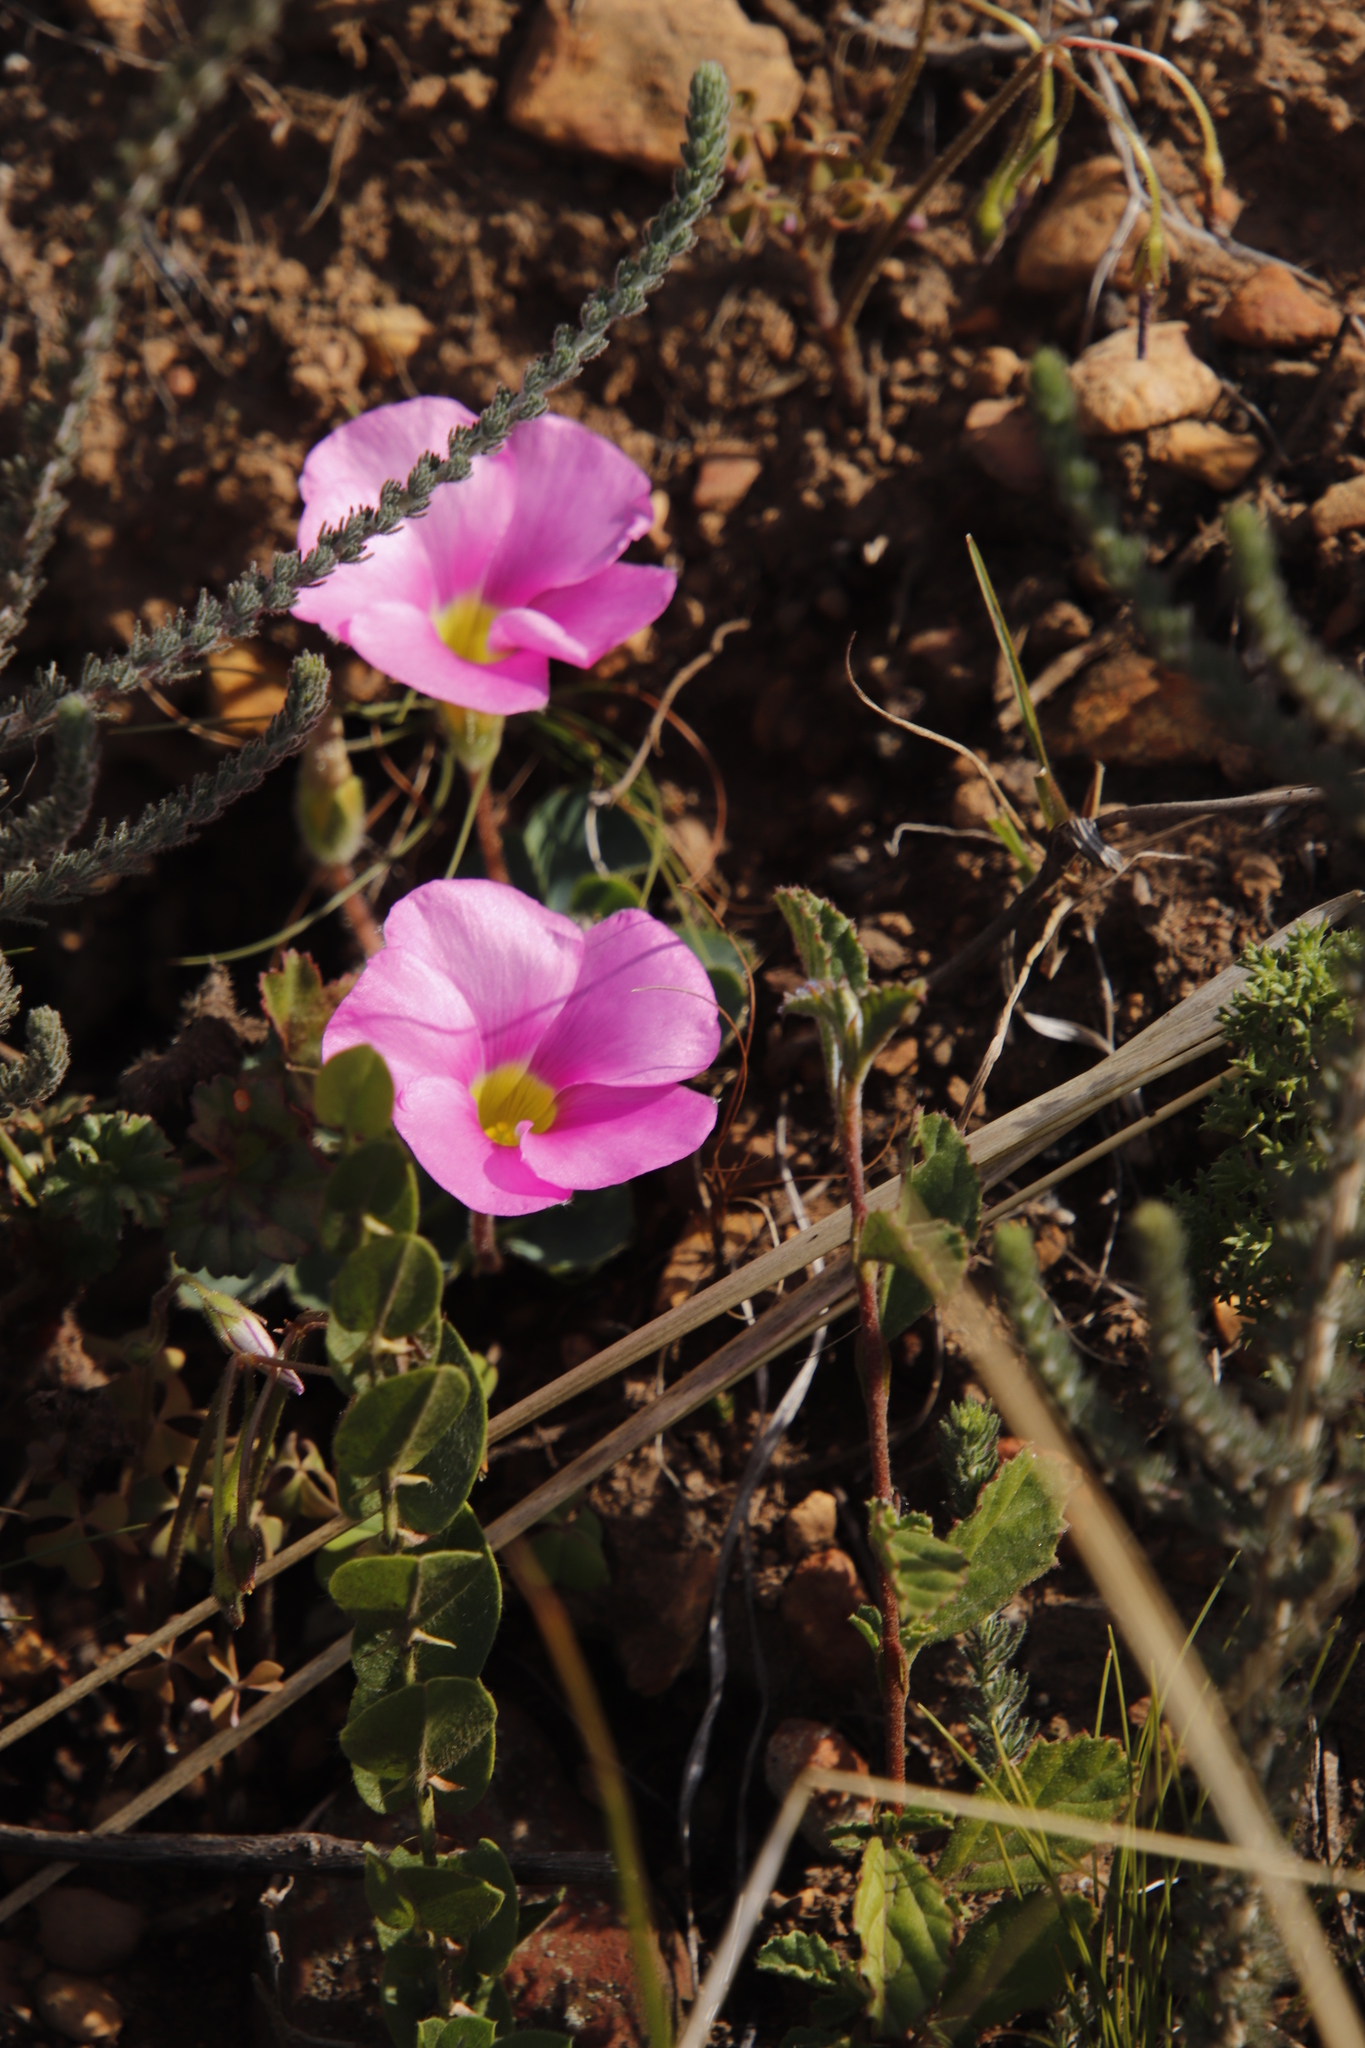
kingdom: Plantae
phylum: Tracheophyta
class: Magnoliopsida
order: Oxalidales
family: Oxalidaceae
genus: Oxalis
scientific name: Oxalis purpurea
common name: Purple woodsorrel
